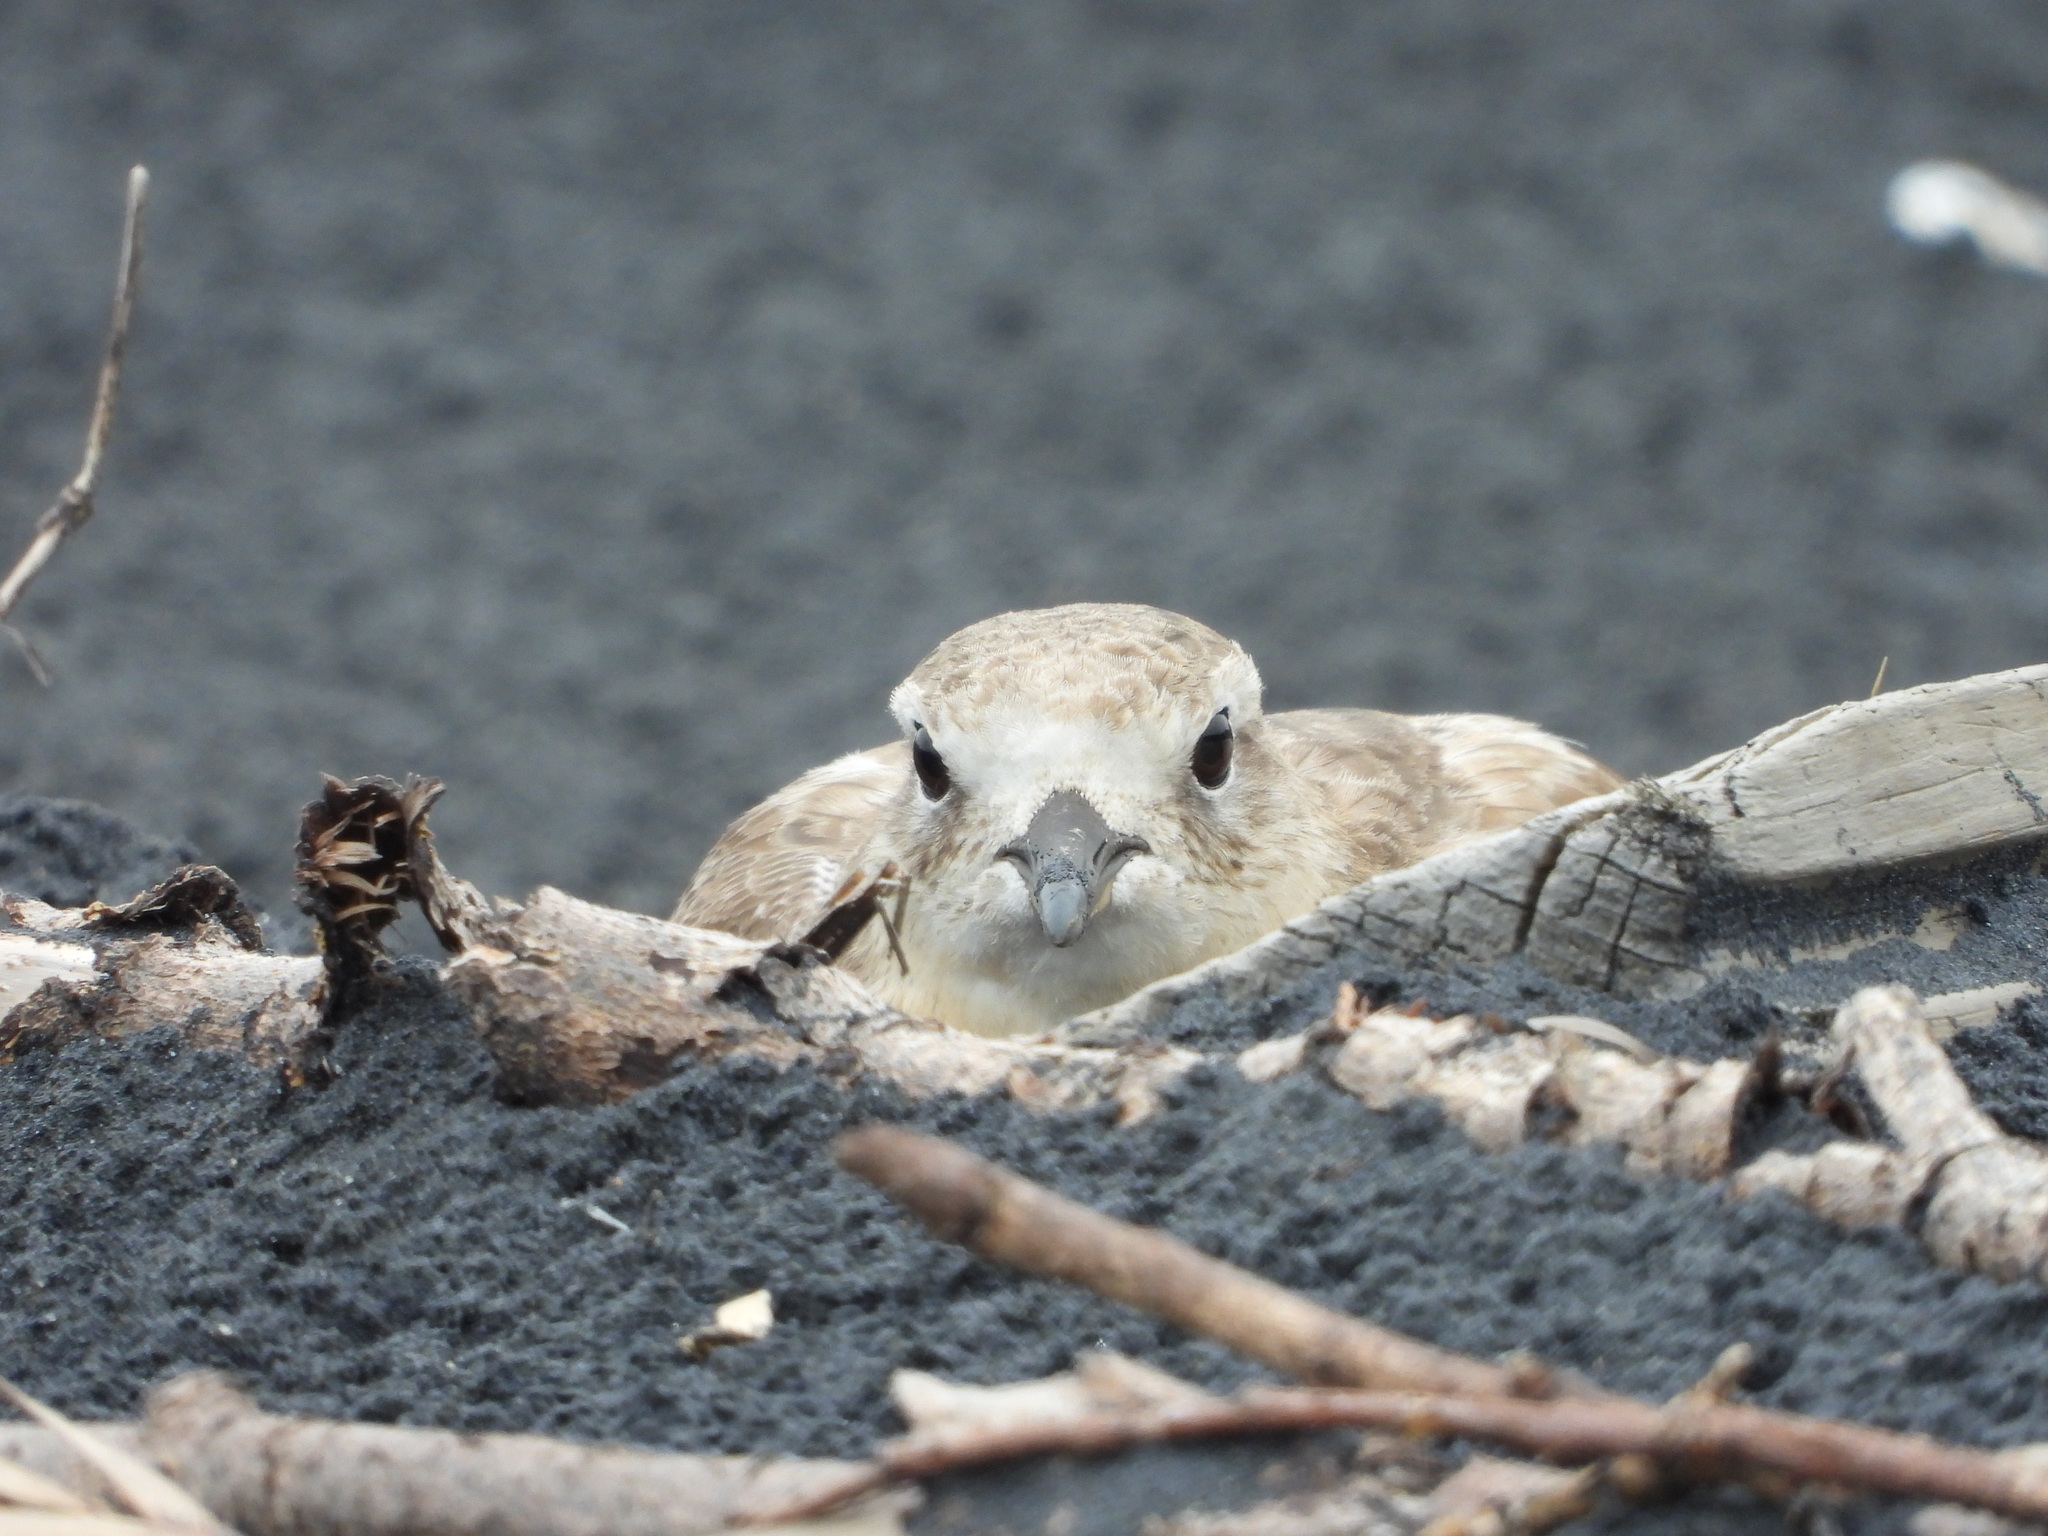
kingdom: Animalia
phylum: Chordata
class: Aves
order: Charadriiformes
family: Charadriidae
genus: Anarhynchus
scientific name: Anarhynchus
